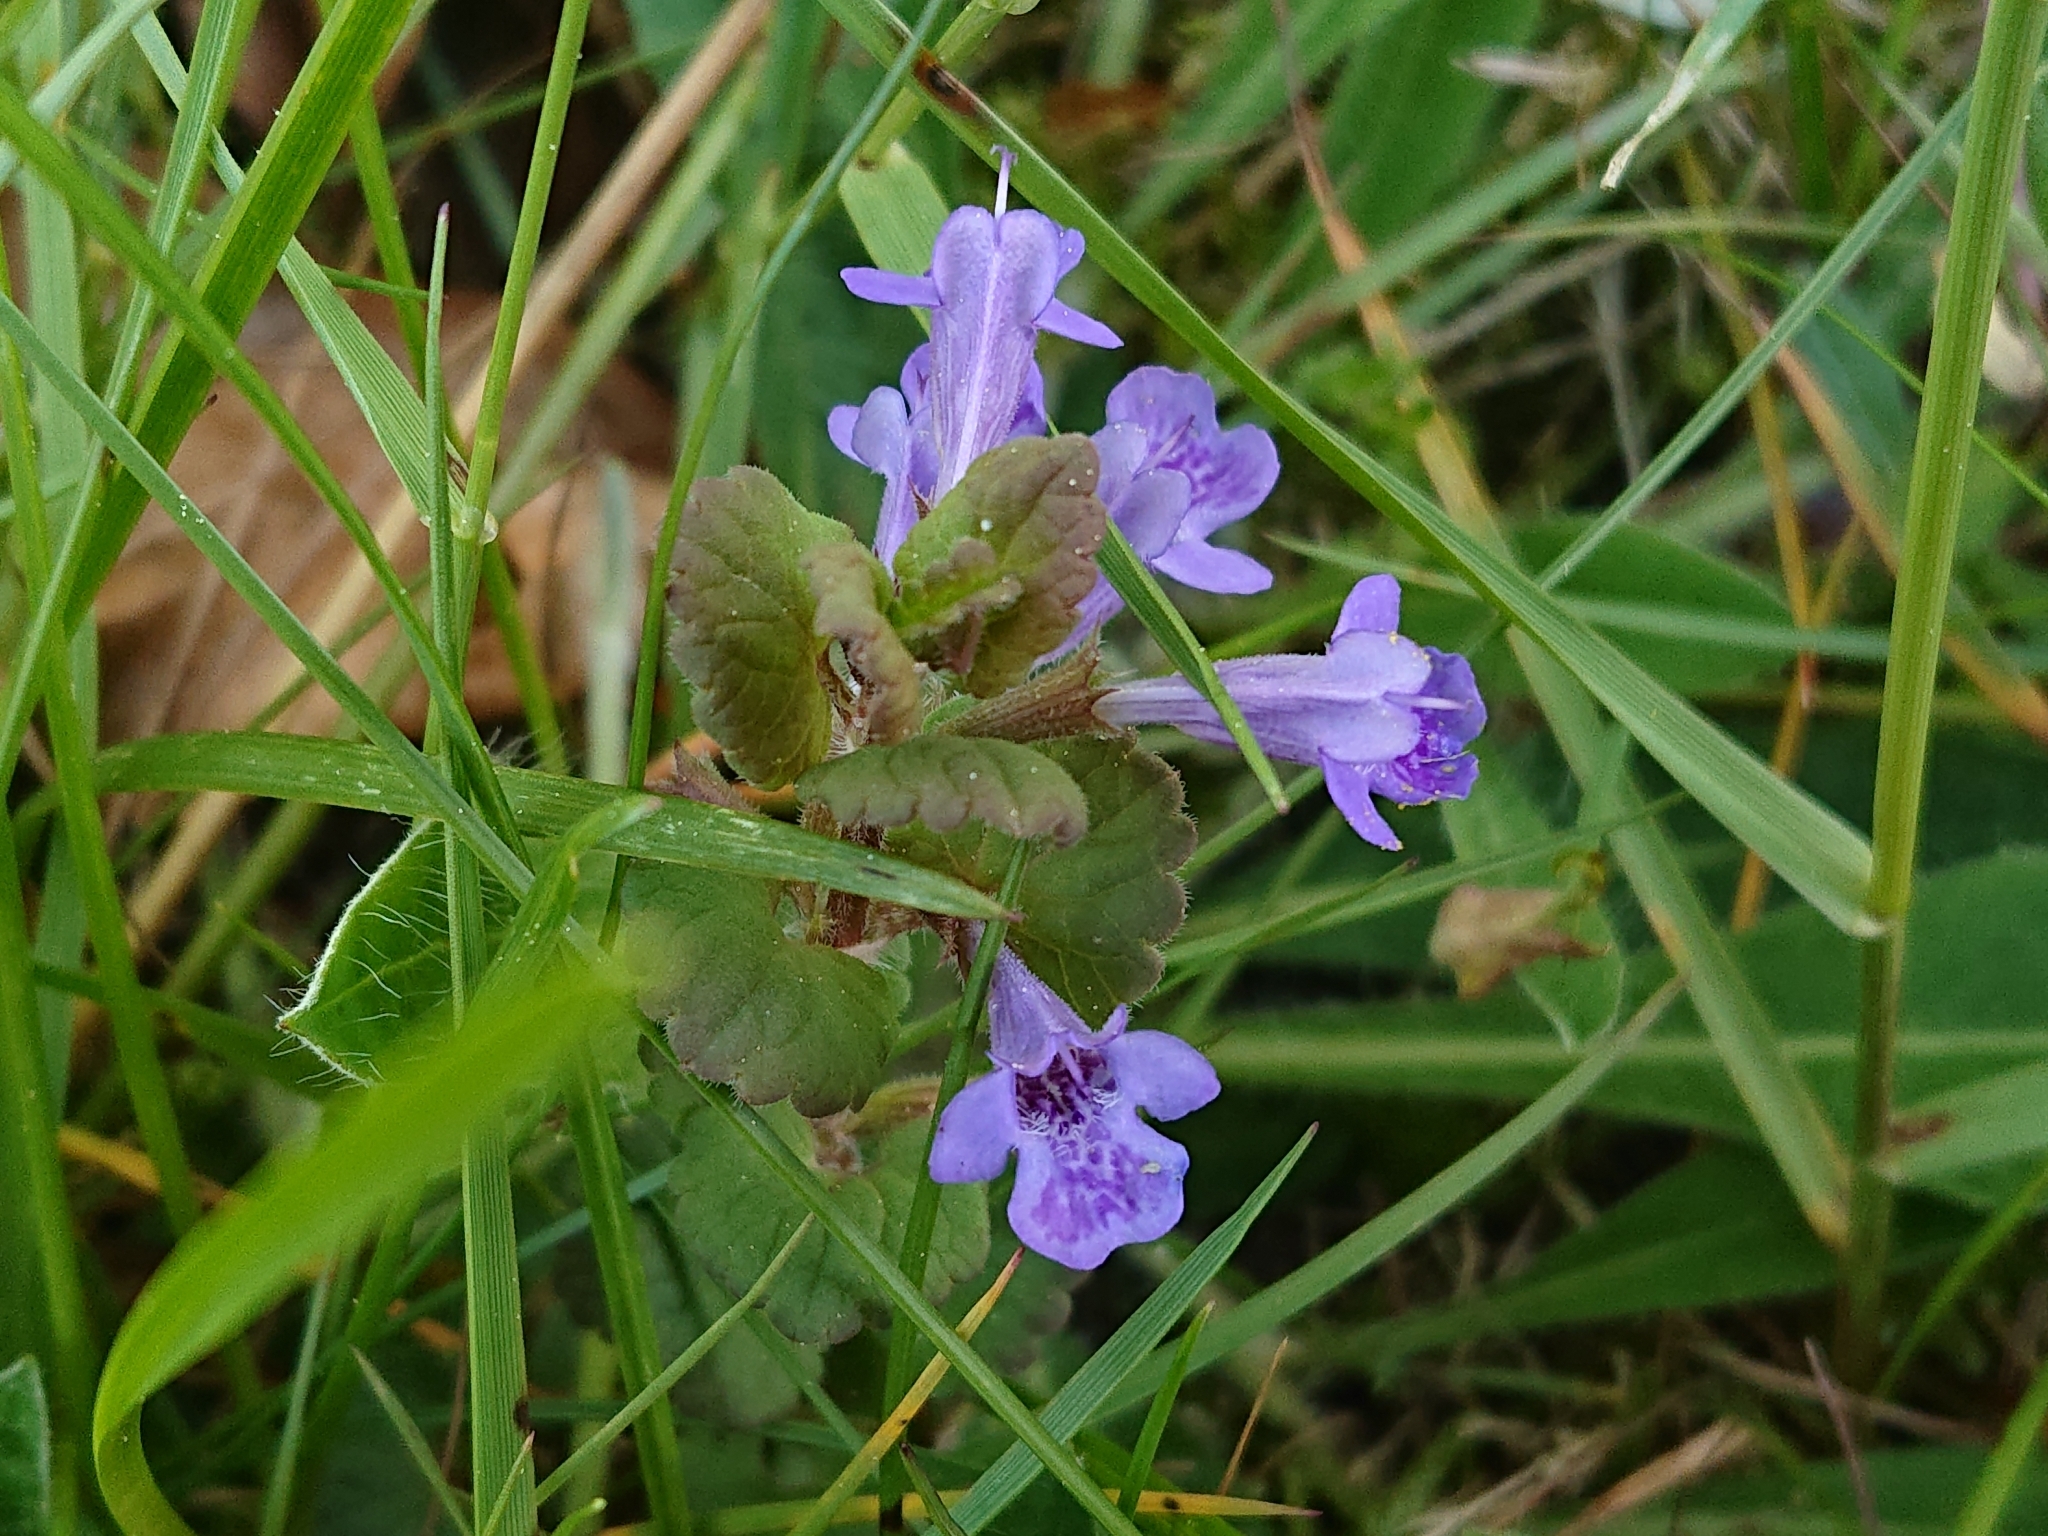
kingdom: Plantae
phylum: Tracheophyta
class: Magnoliopsida
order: Lamiales
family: Lamiaceae
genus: Glechoma
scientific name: Glechoma hederacea
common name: Ground ivy
